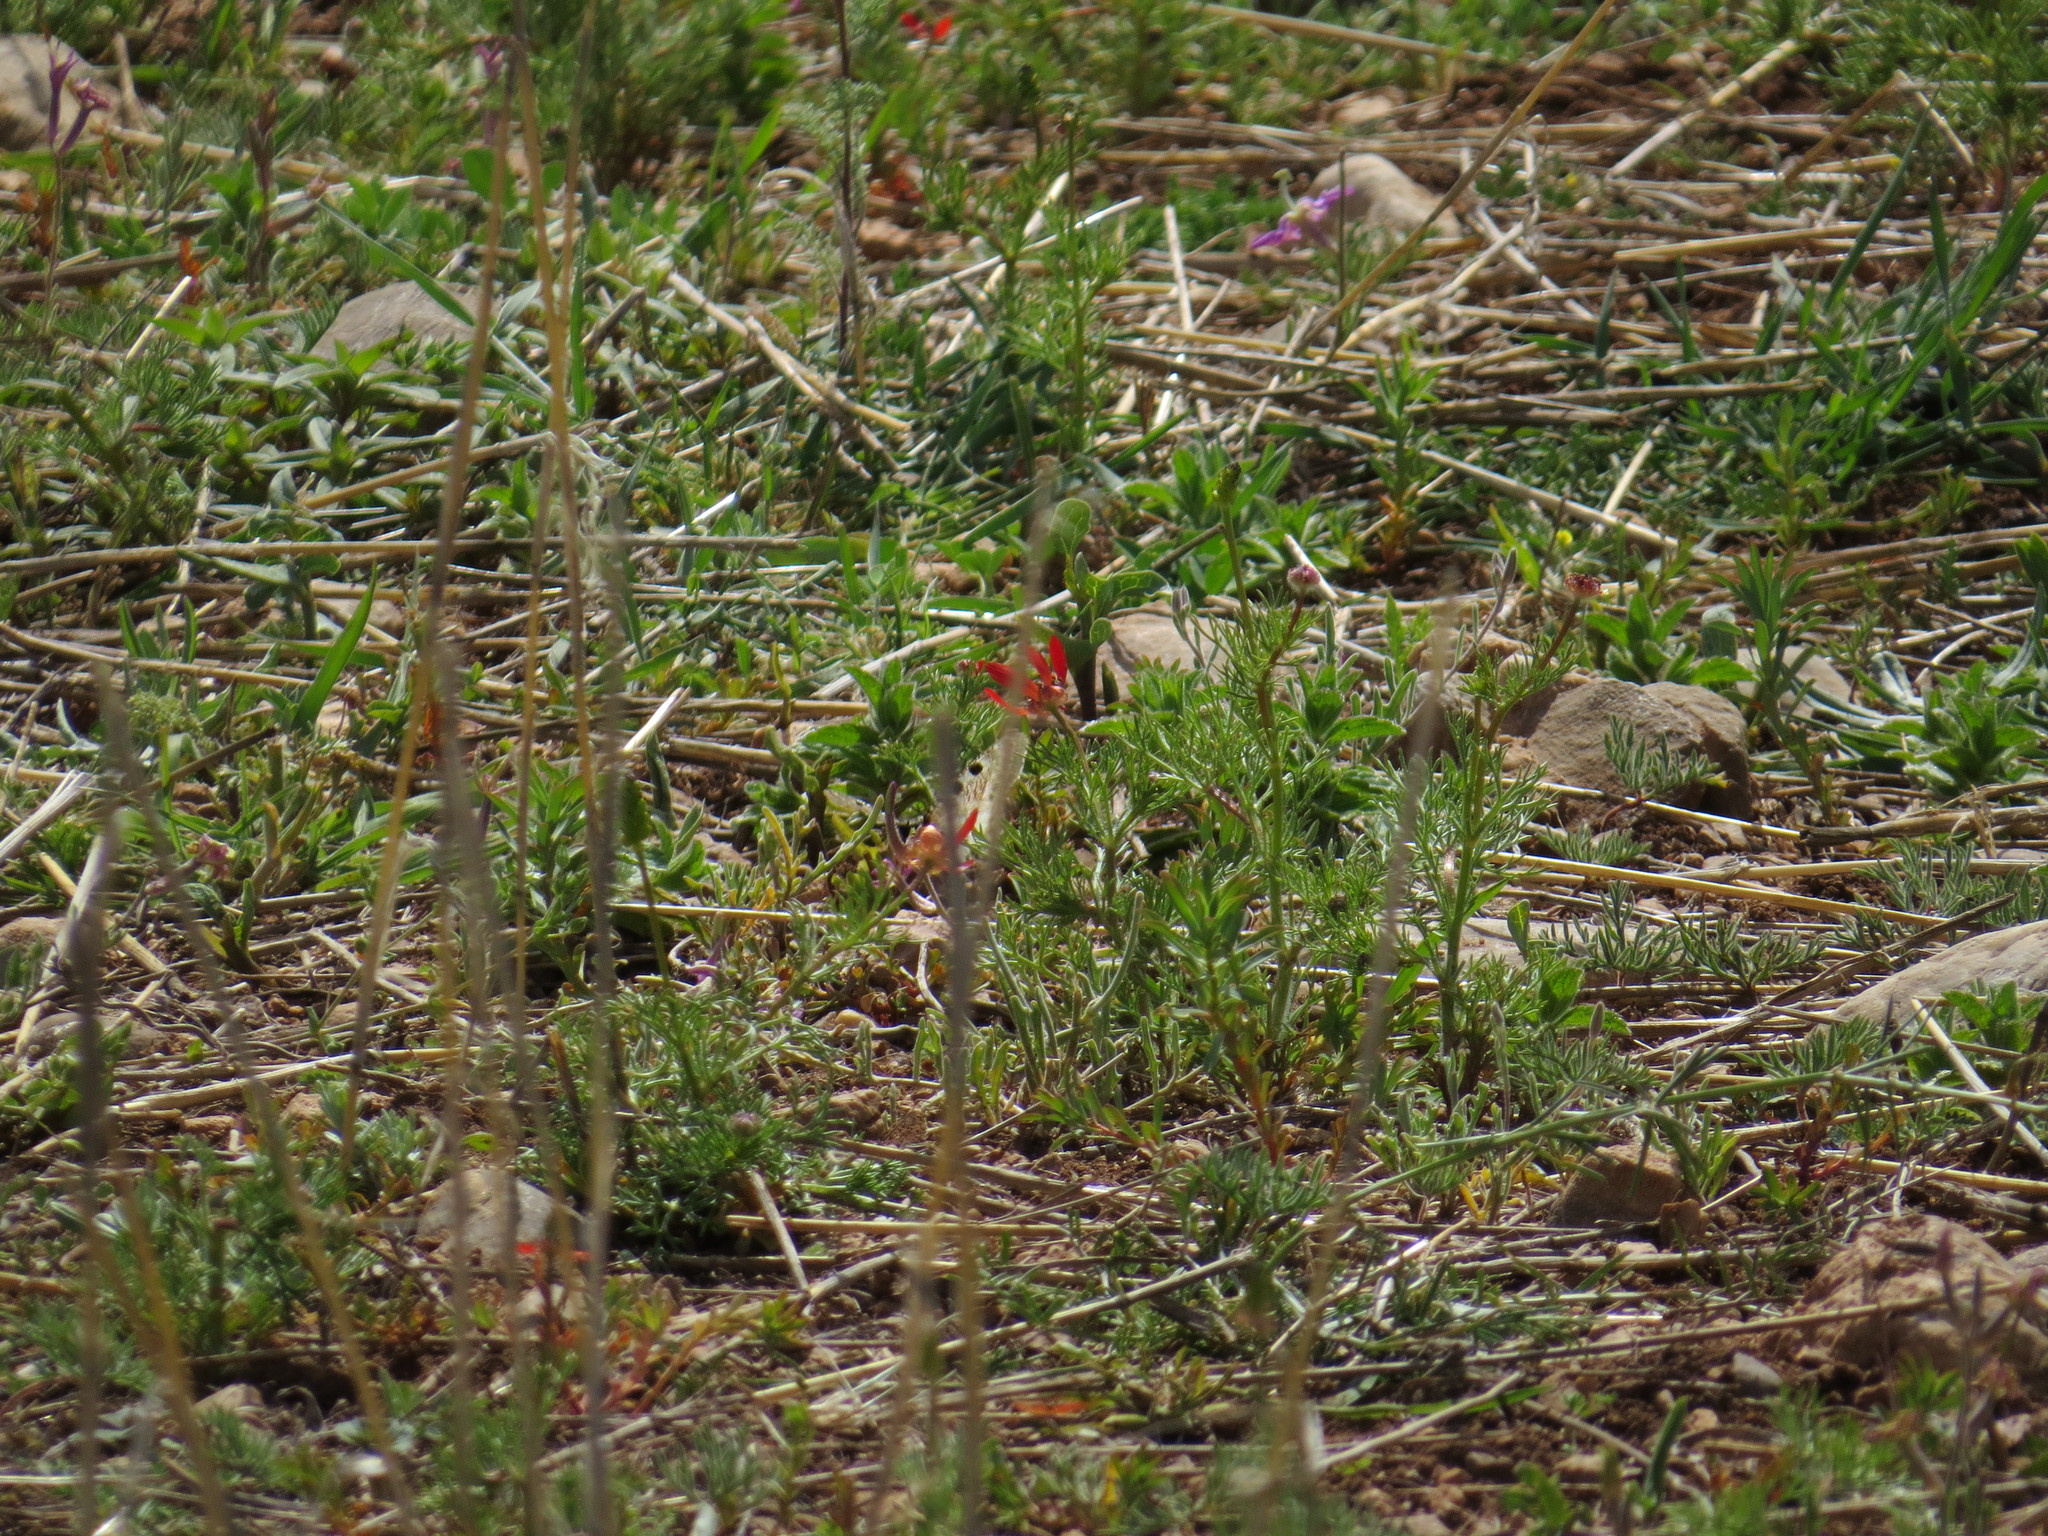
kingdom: Animalia
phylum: Arthropoda
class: Insecta
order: Lepidoptera
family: Papilionidae
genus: Archon
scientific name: Archon apollinus
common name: False apollo
